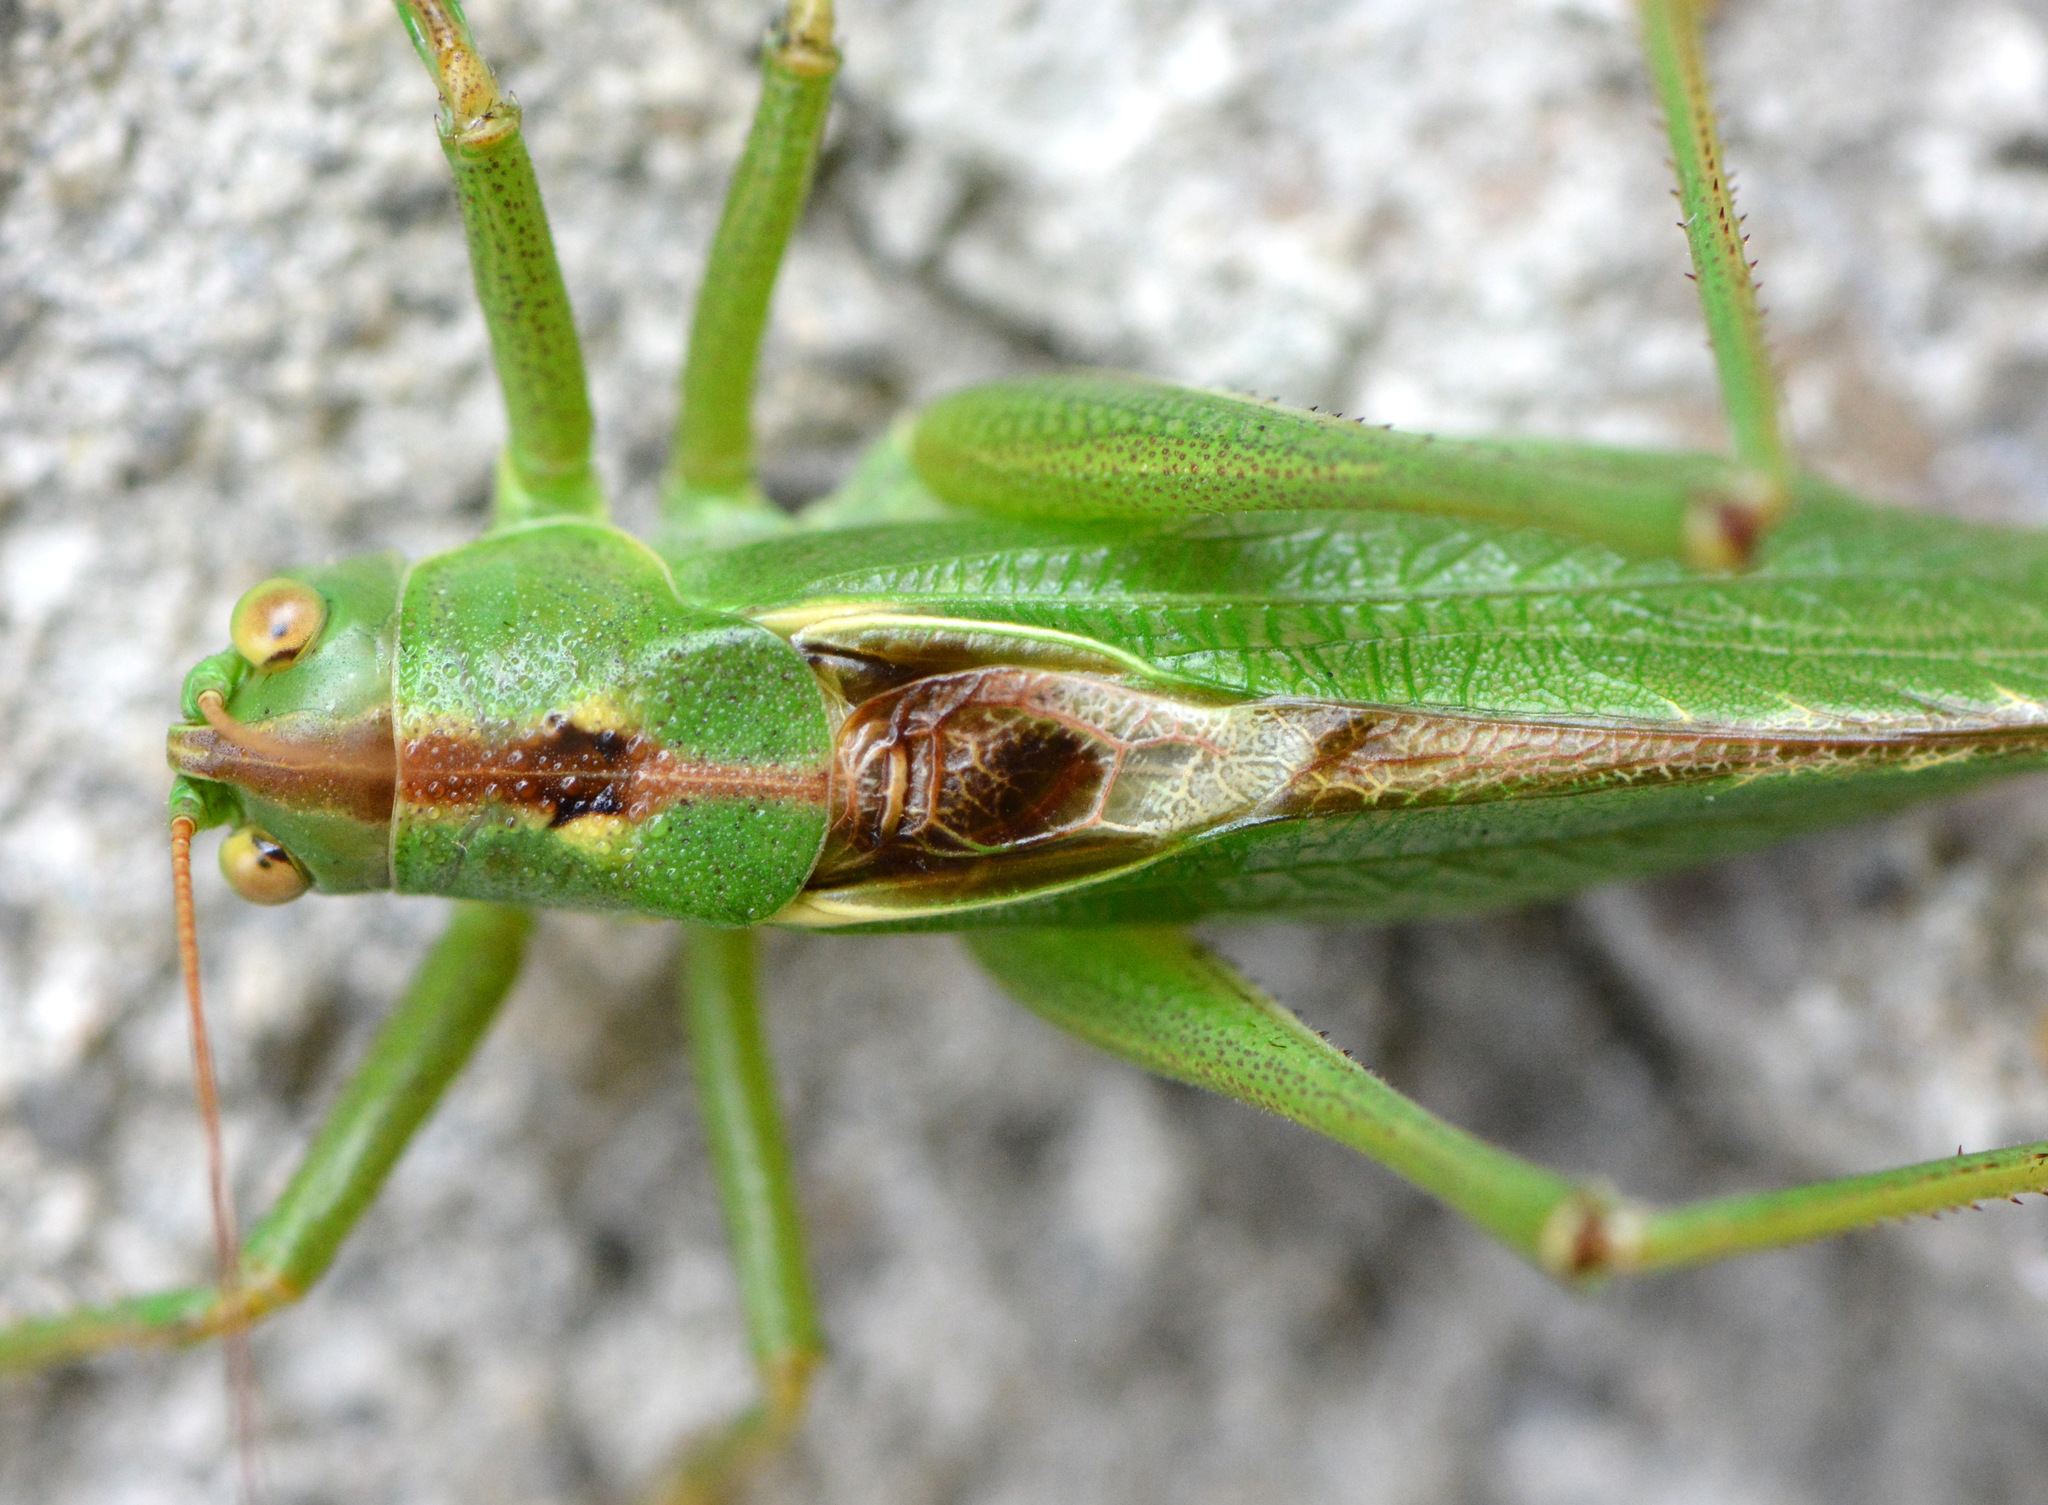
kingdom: Animalia
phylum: Arthropoda
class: Insecta
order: Orthoptera
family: Tettigoniidae
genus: Tettigonia
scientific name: Tettigonia viridissima
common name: Great green bush-cricket
